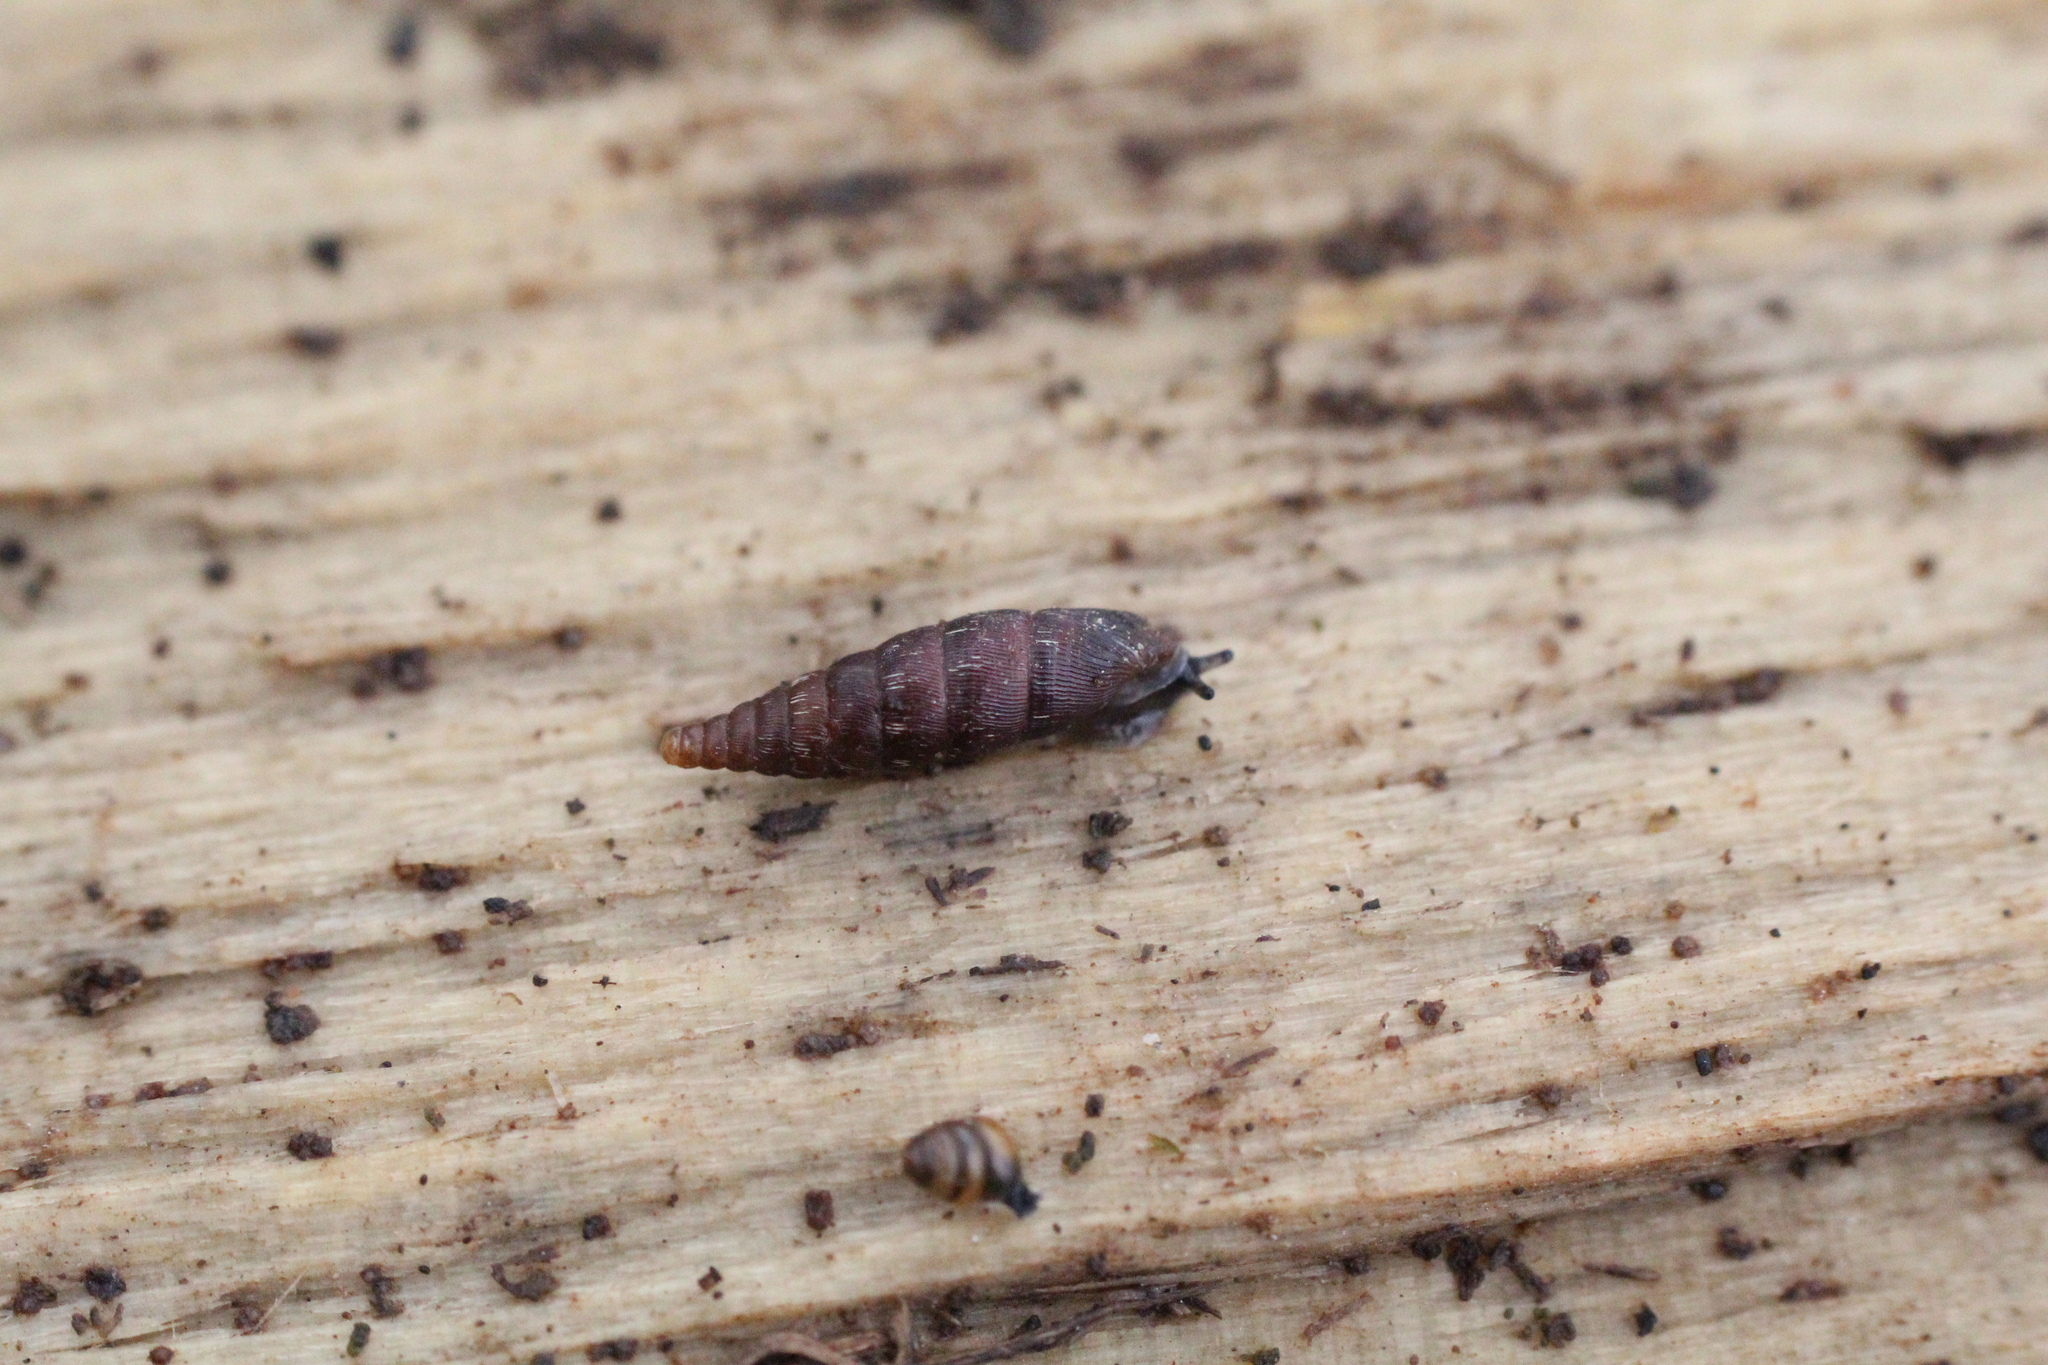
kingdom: Animalia
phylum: Mollusca
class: Gastropoda
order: Stylommatophora
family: Clausiliidae
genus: Clausilia
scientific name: Clausilia bidentata
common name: Two-toothed door snail
